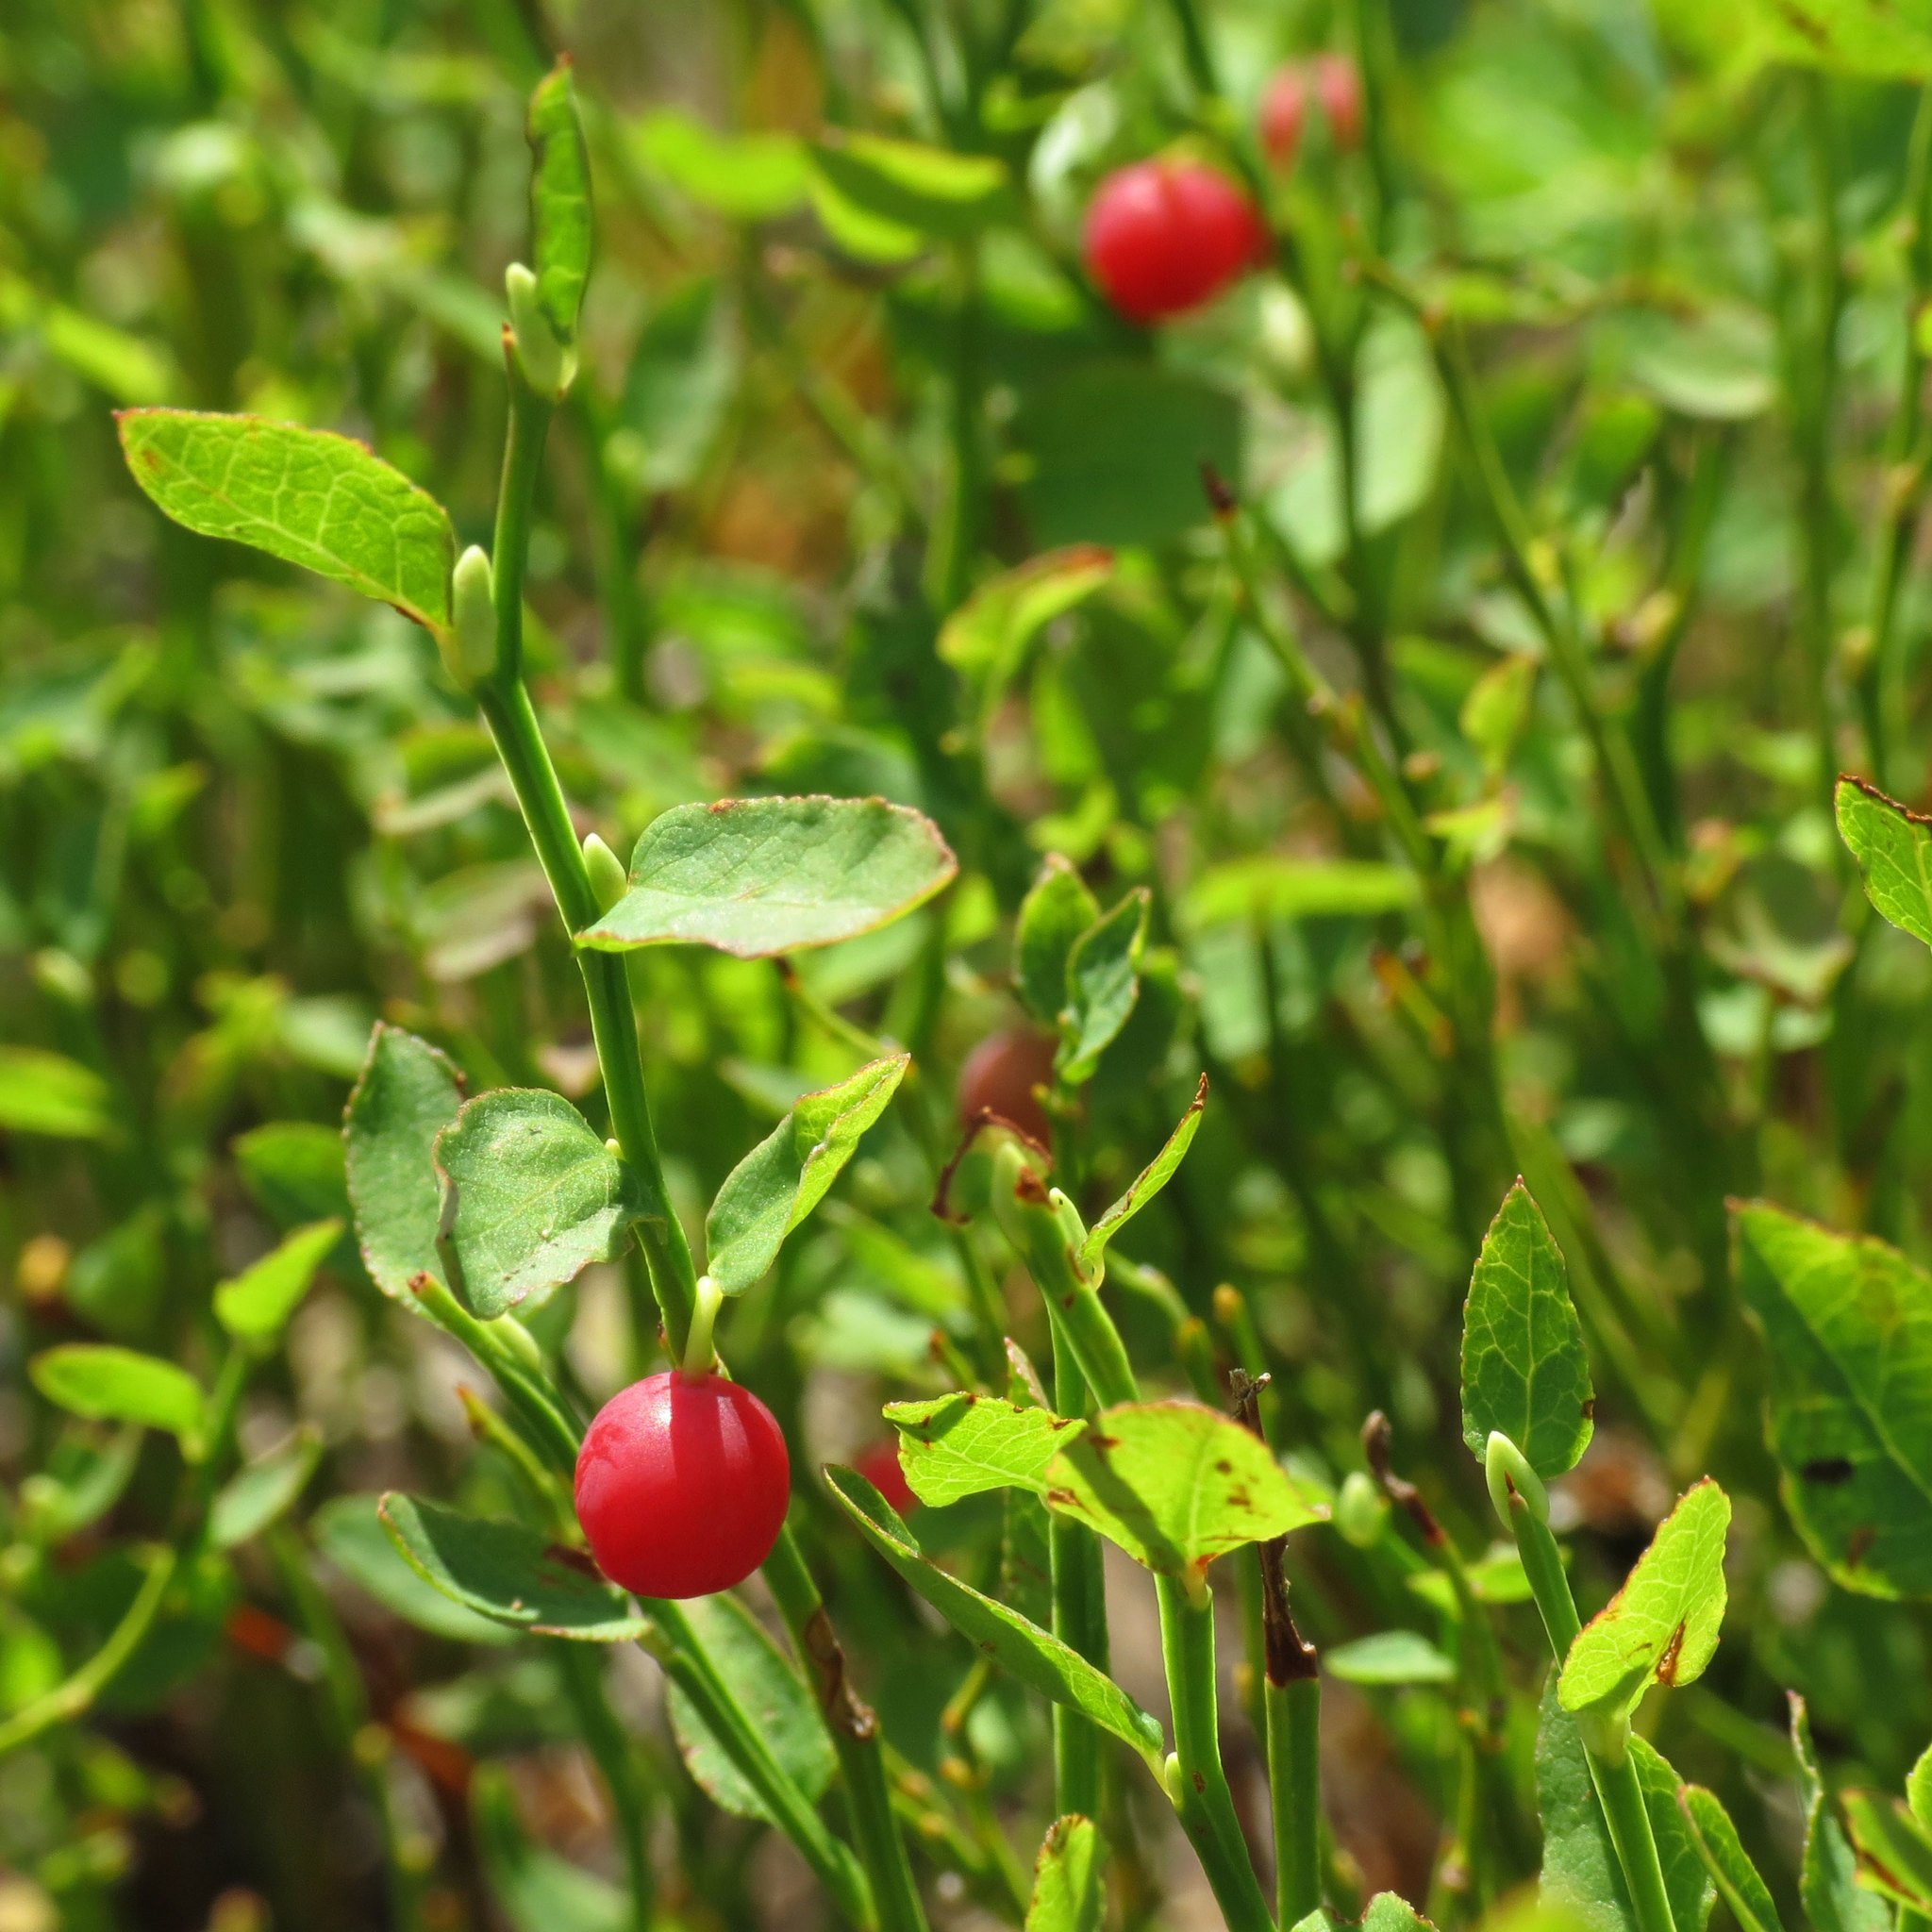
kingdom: Plantae
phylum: Tracheophyta
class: Magnoliopsida
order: Ericales
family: Ericaceae
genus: Vaccinium
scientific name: Vaccinium scoparium
